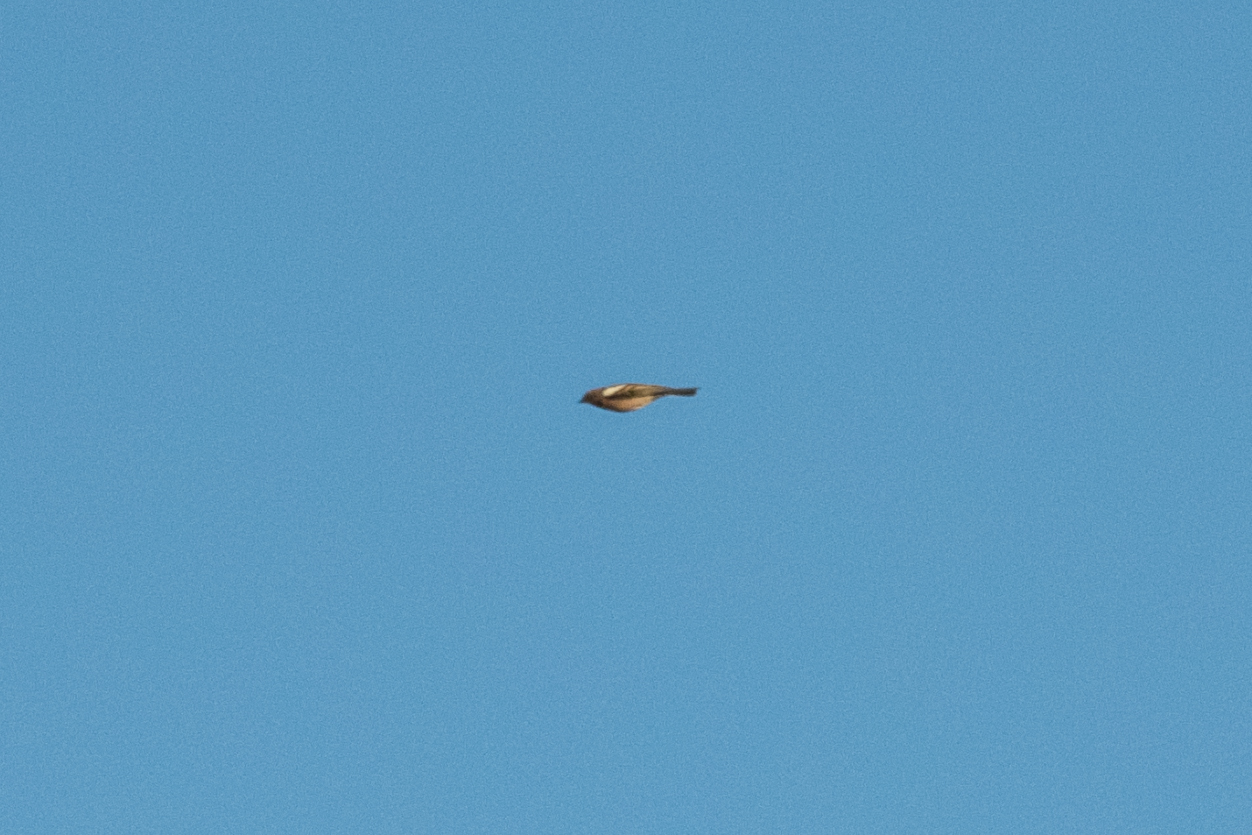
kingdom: Animalia
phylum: Chordata
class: Aves
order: Passeriformes
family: Fringillidae
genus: Fringilla
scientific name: Fringilla coelebs
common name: Common chaffinch
